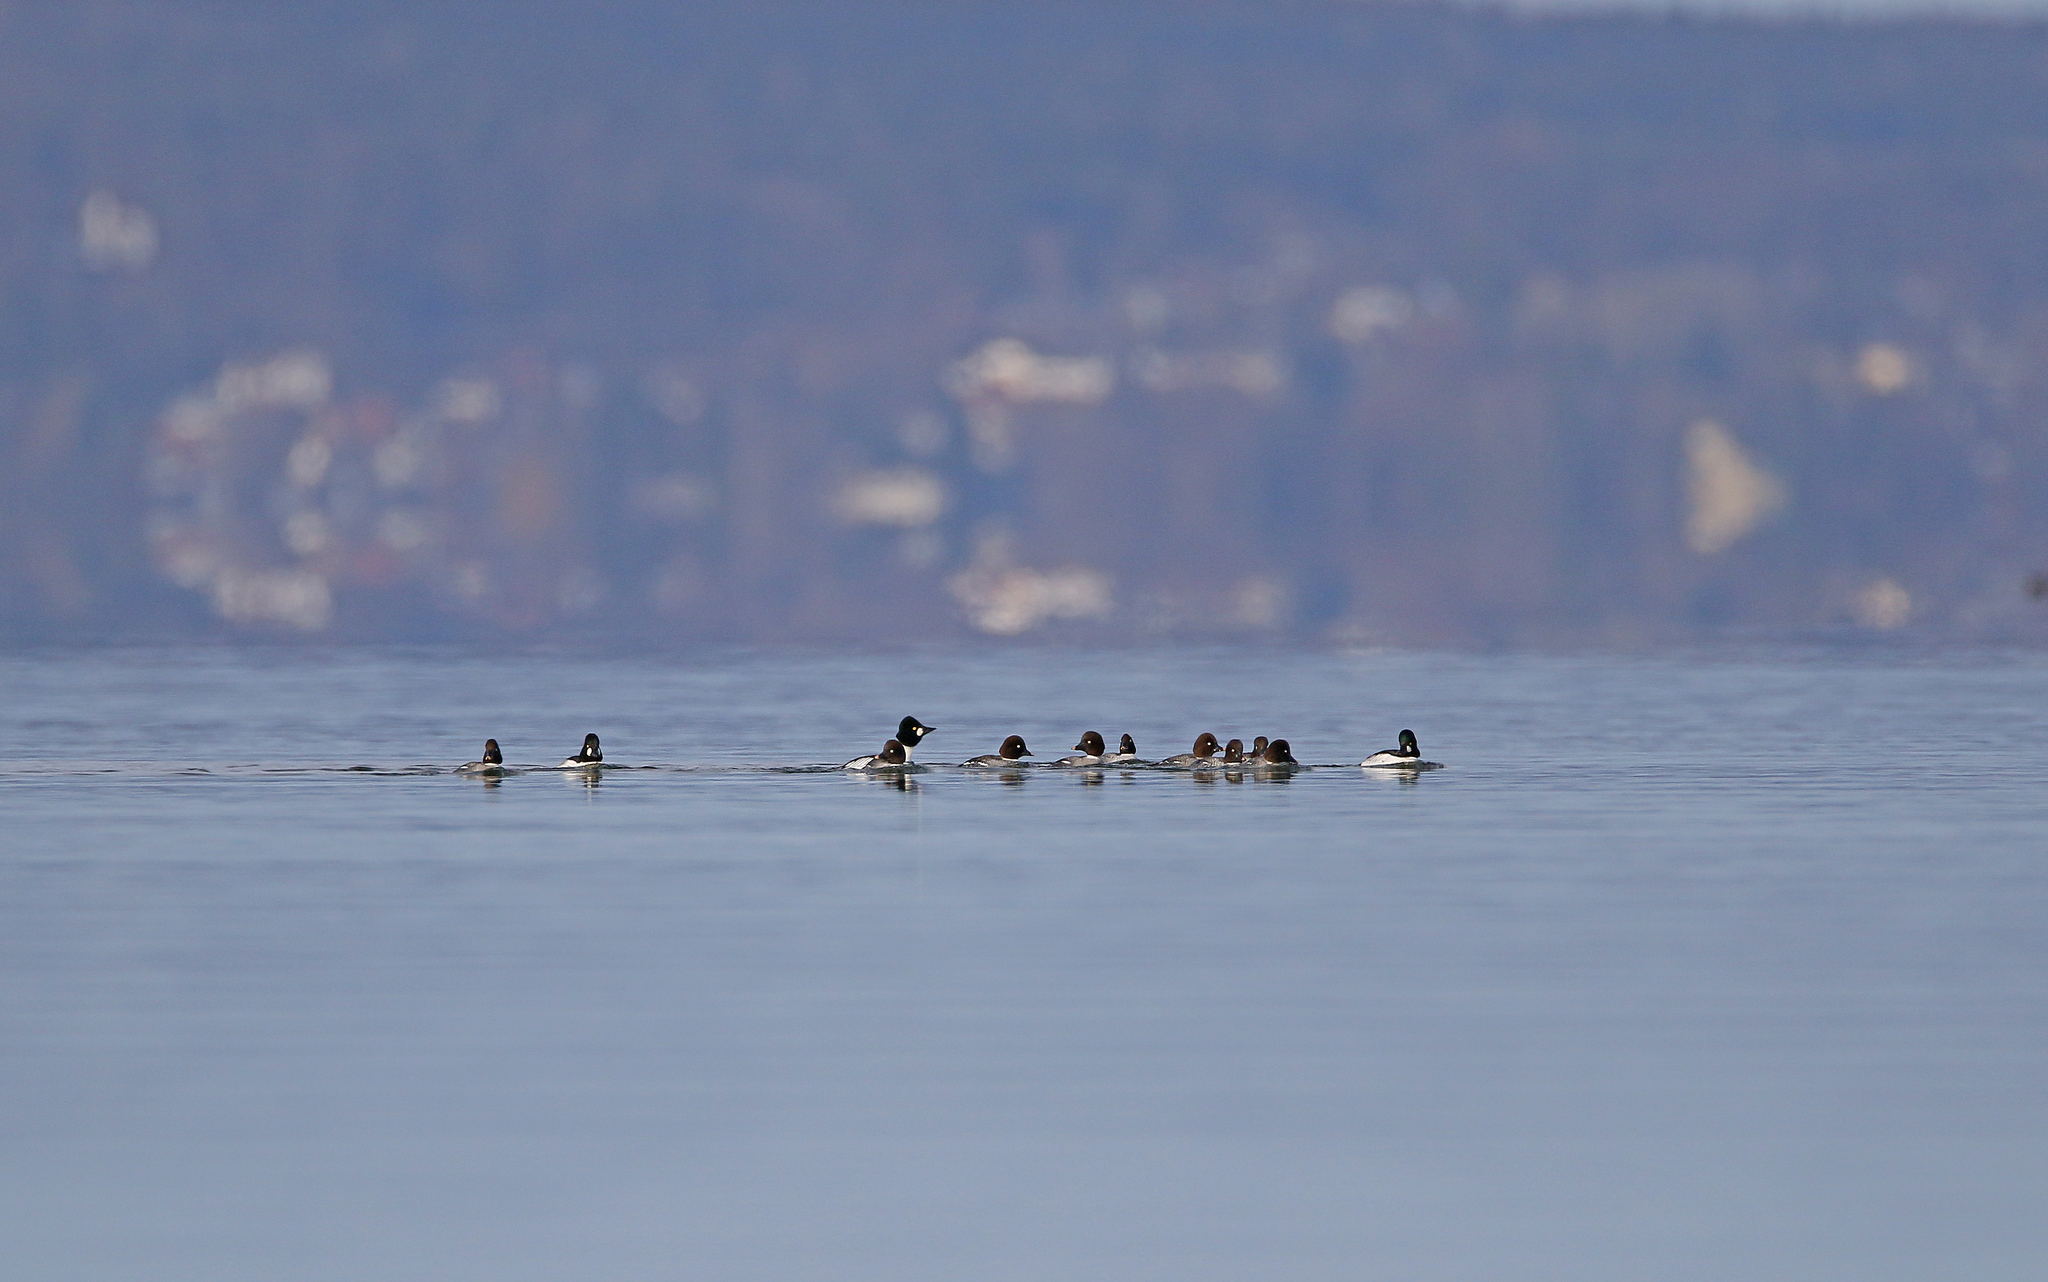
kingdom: Animalia
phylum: Chordata
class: Aves
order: Anseriformes
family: Anatidae
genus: Bucephala
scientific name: Bucephala clangula
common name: Common goldeneye
